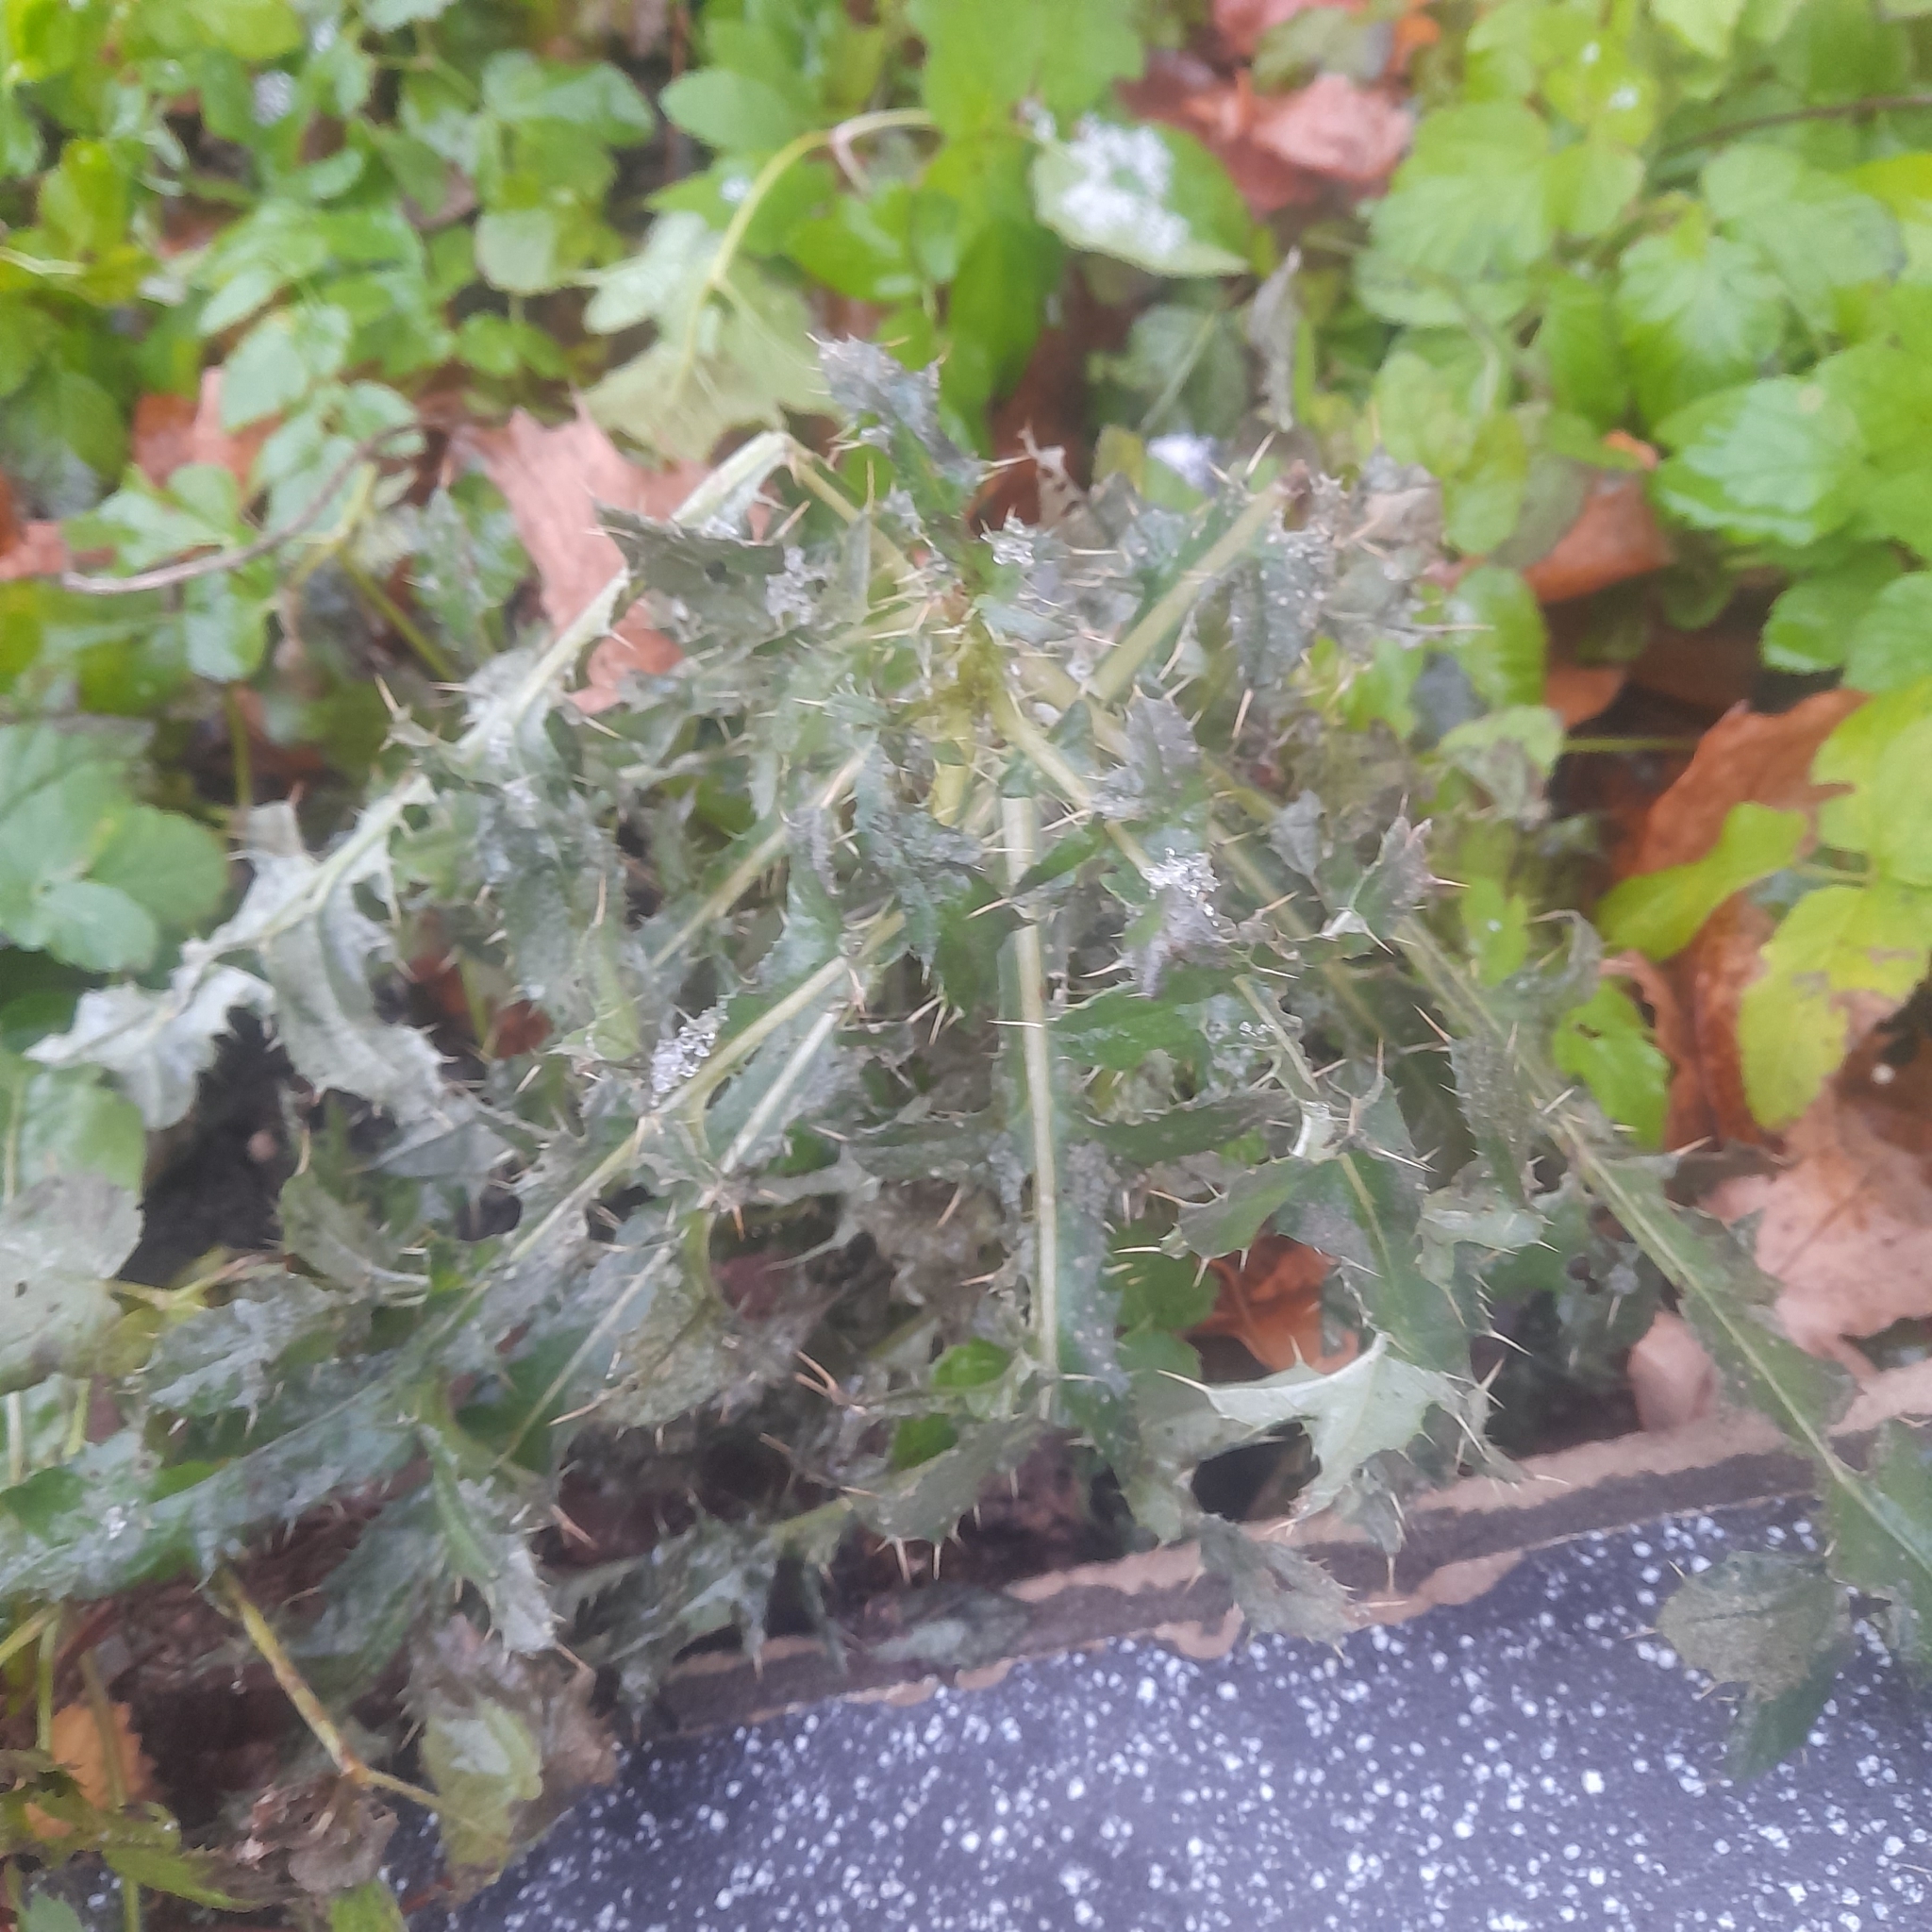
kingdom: Plantae
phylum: Tracheophyta
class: Magnoliopsida
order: Asterales
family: Asteraceae
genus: Cirsium
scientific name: Cirsium arvense
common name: Creeping thistle
